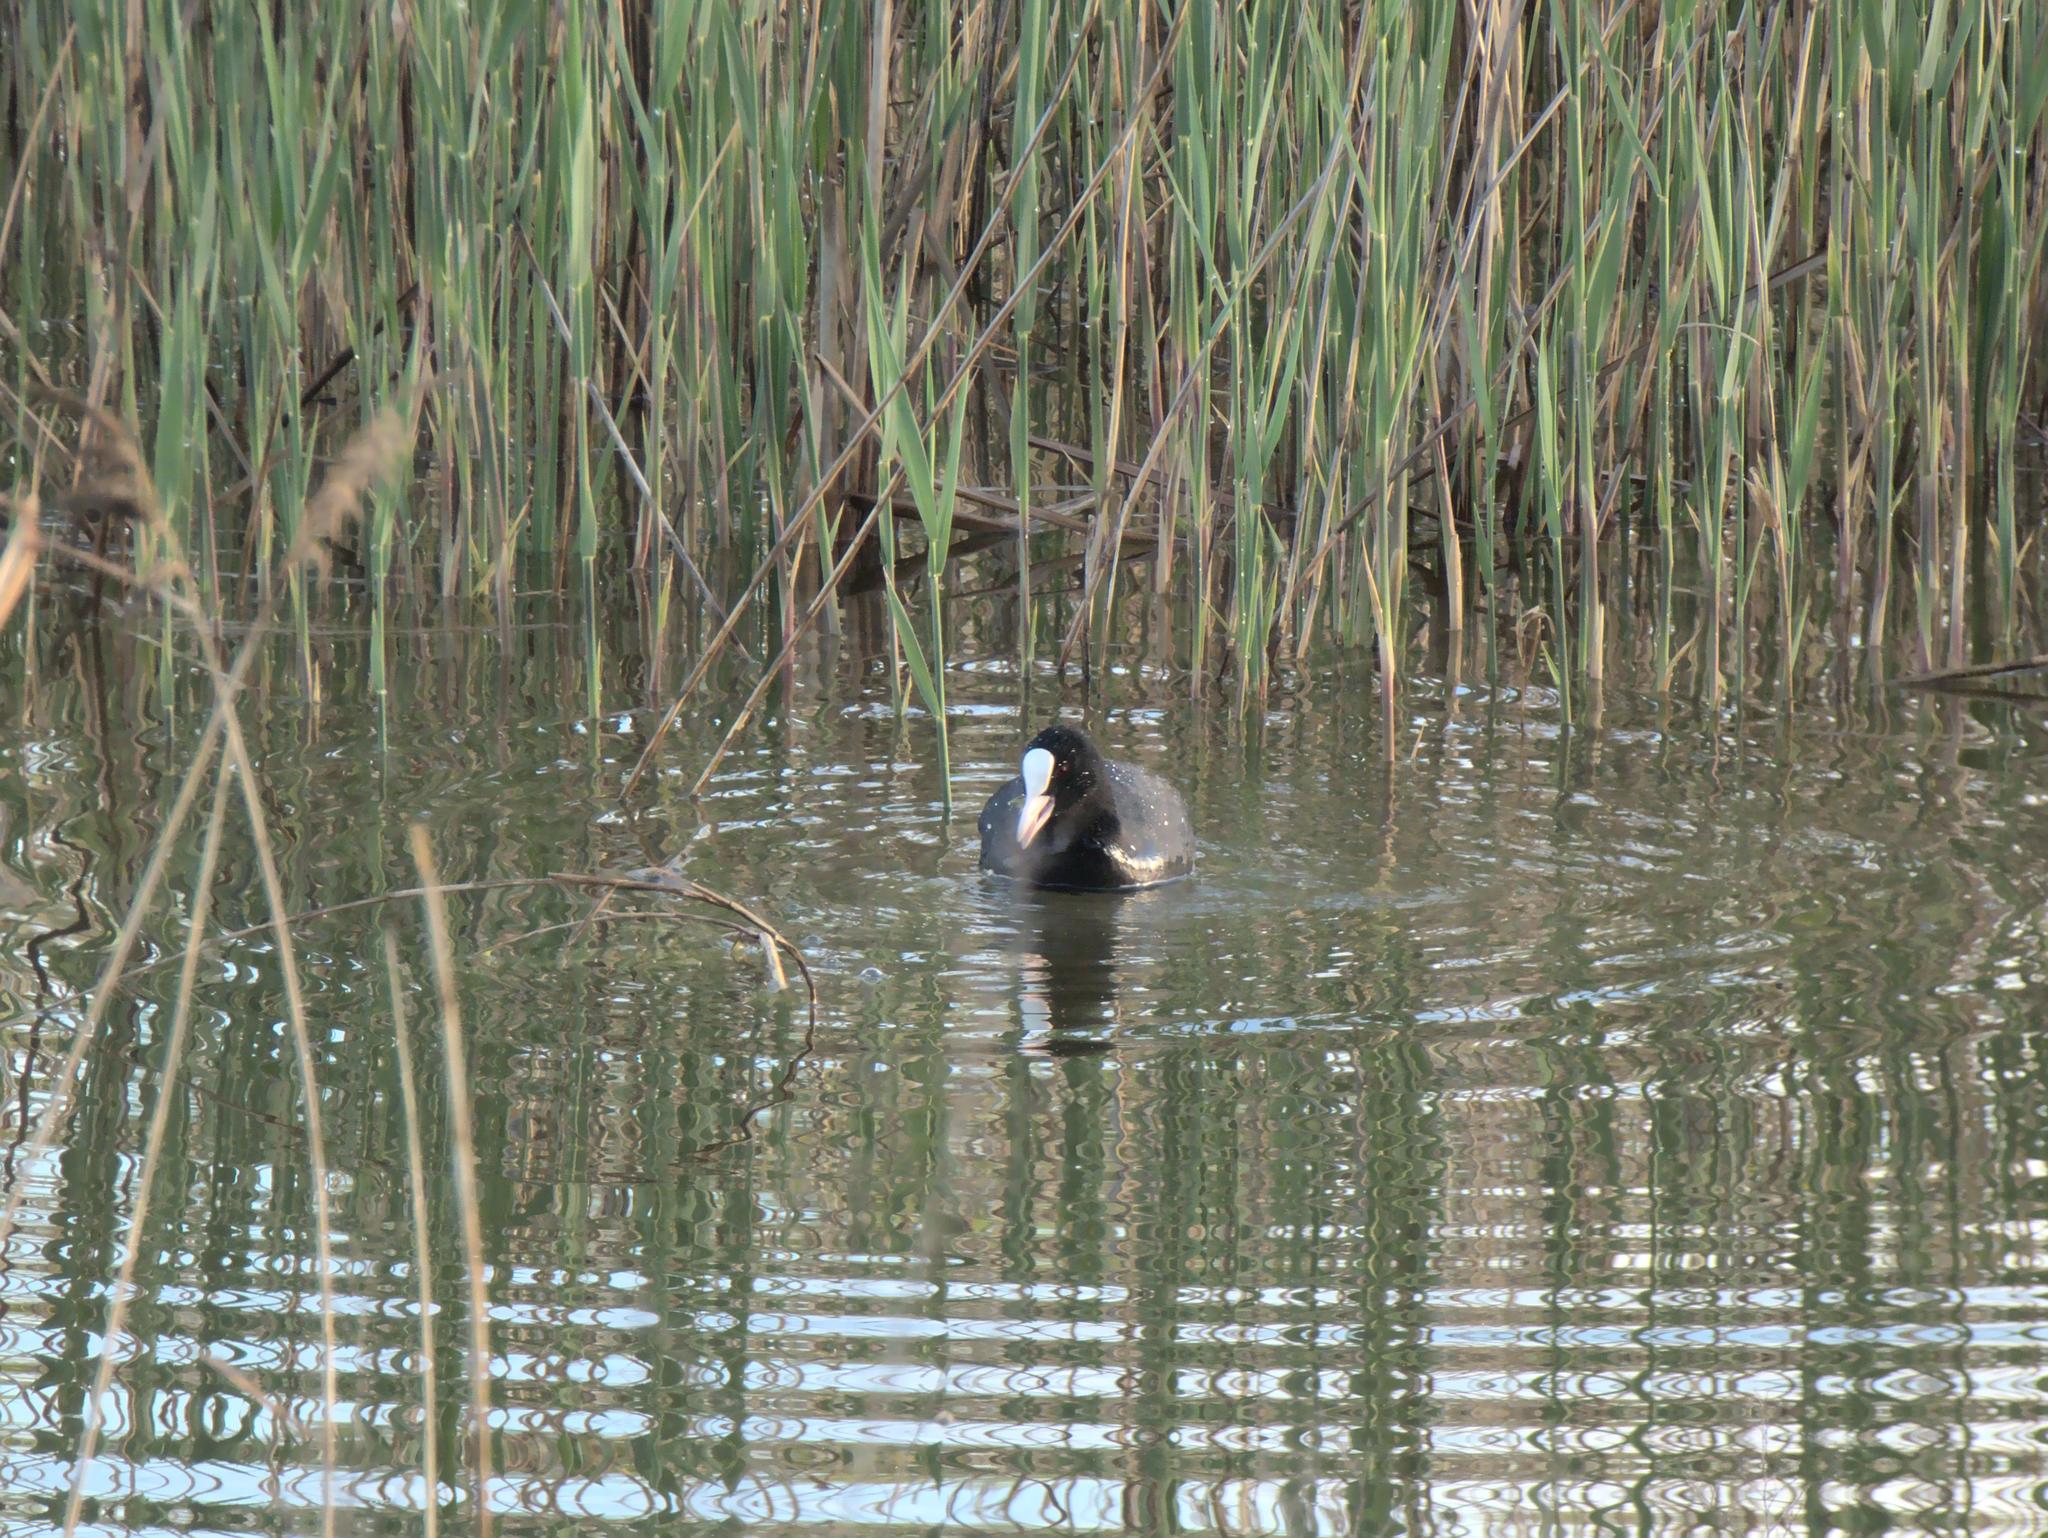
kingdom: Animalia
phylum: Chordata
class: Aves
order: Gruiformes
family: Rallidae
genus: Fulica
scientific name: Fulica atra
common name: Eurasian coot
